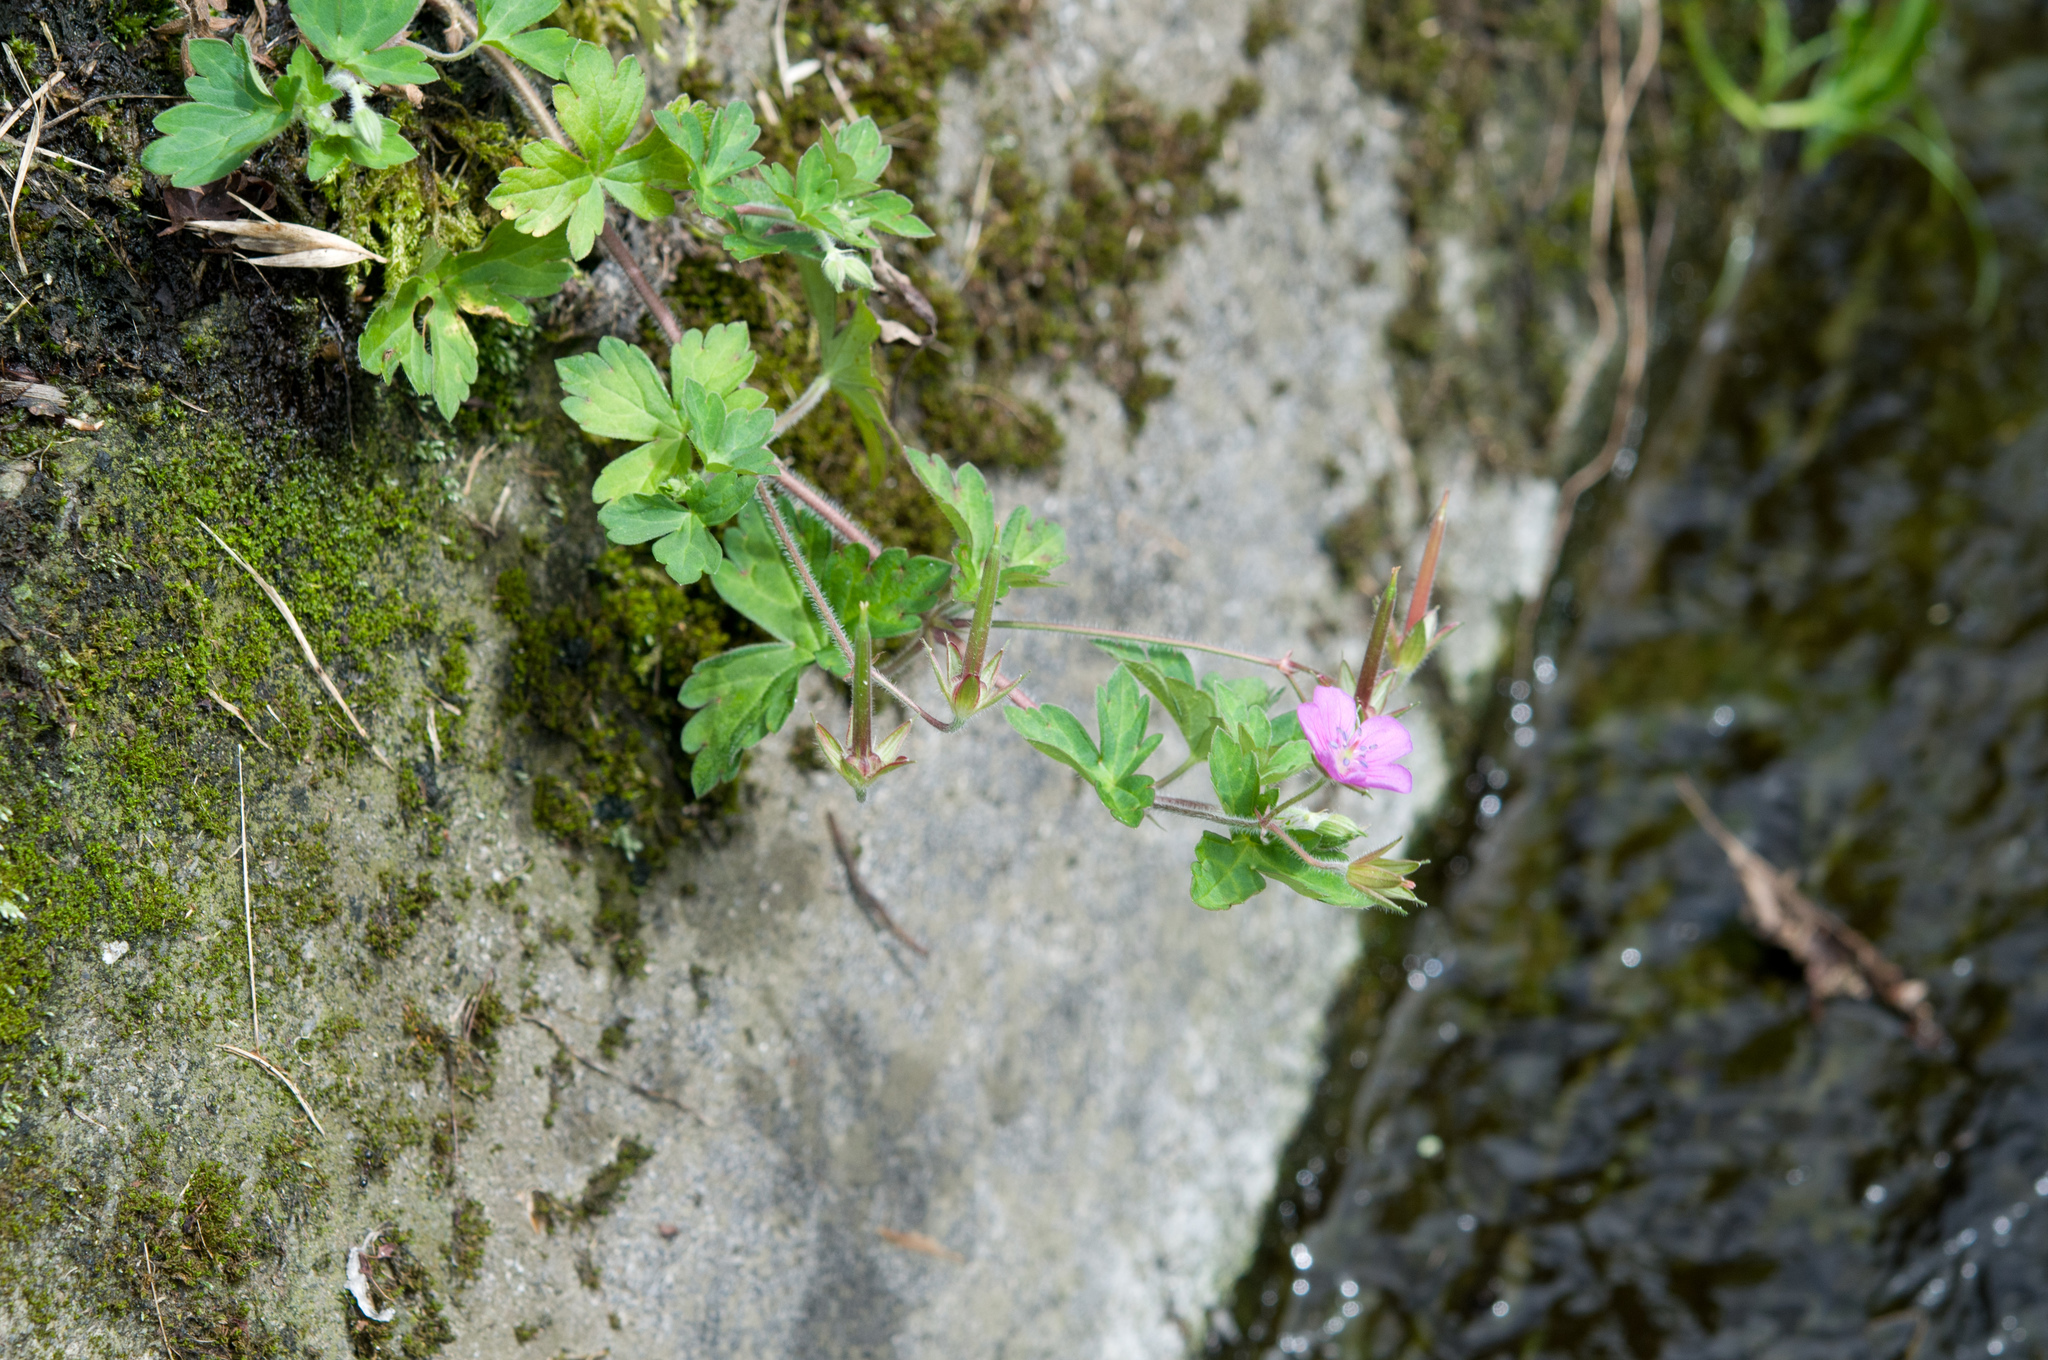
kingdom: Plantae
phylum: Tracheophyta
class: Magnoliopsida
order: Geraniales
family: Geraniaceae
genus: Geranium
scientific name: Geranium thunbergii
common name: Dewdrop crane's-bill
